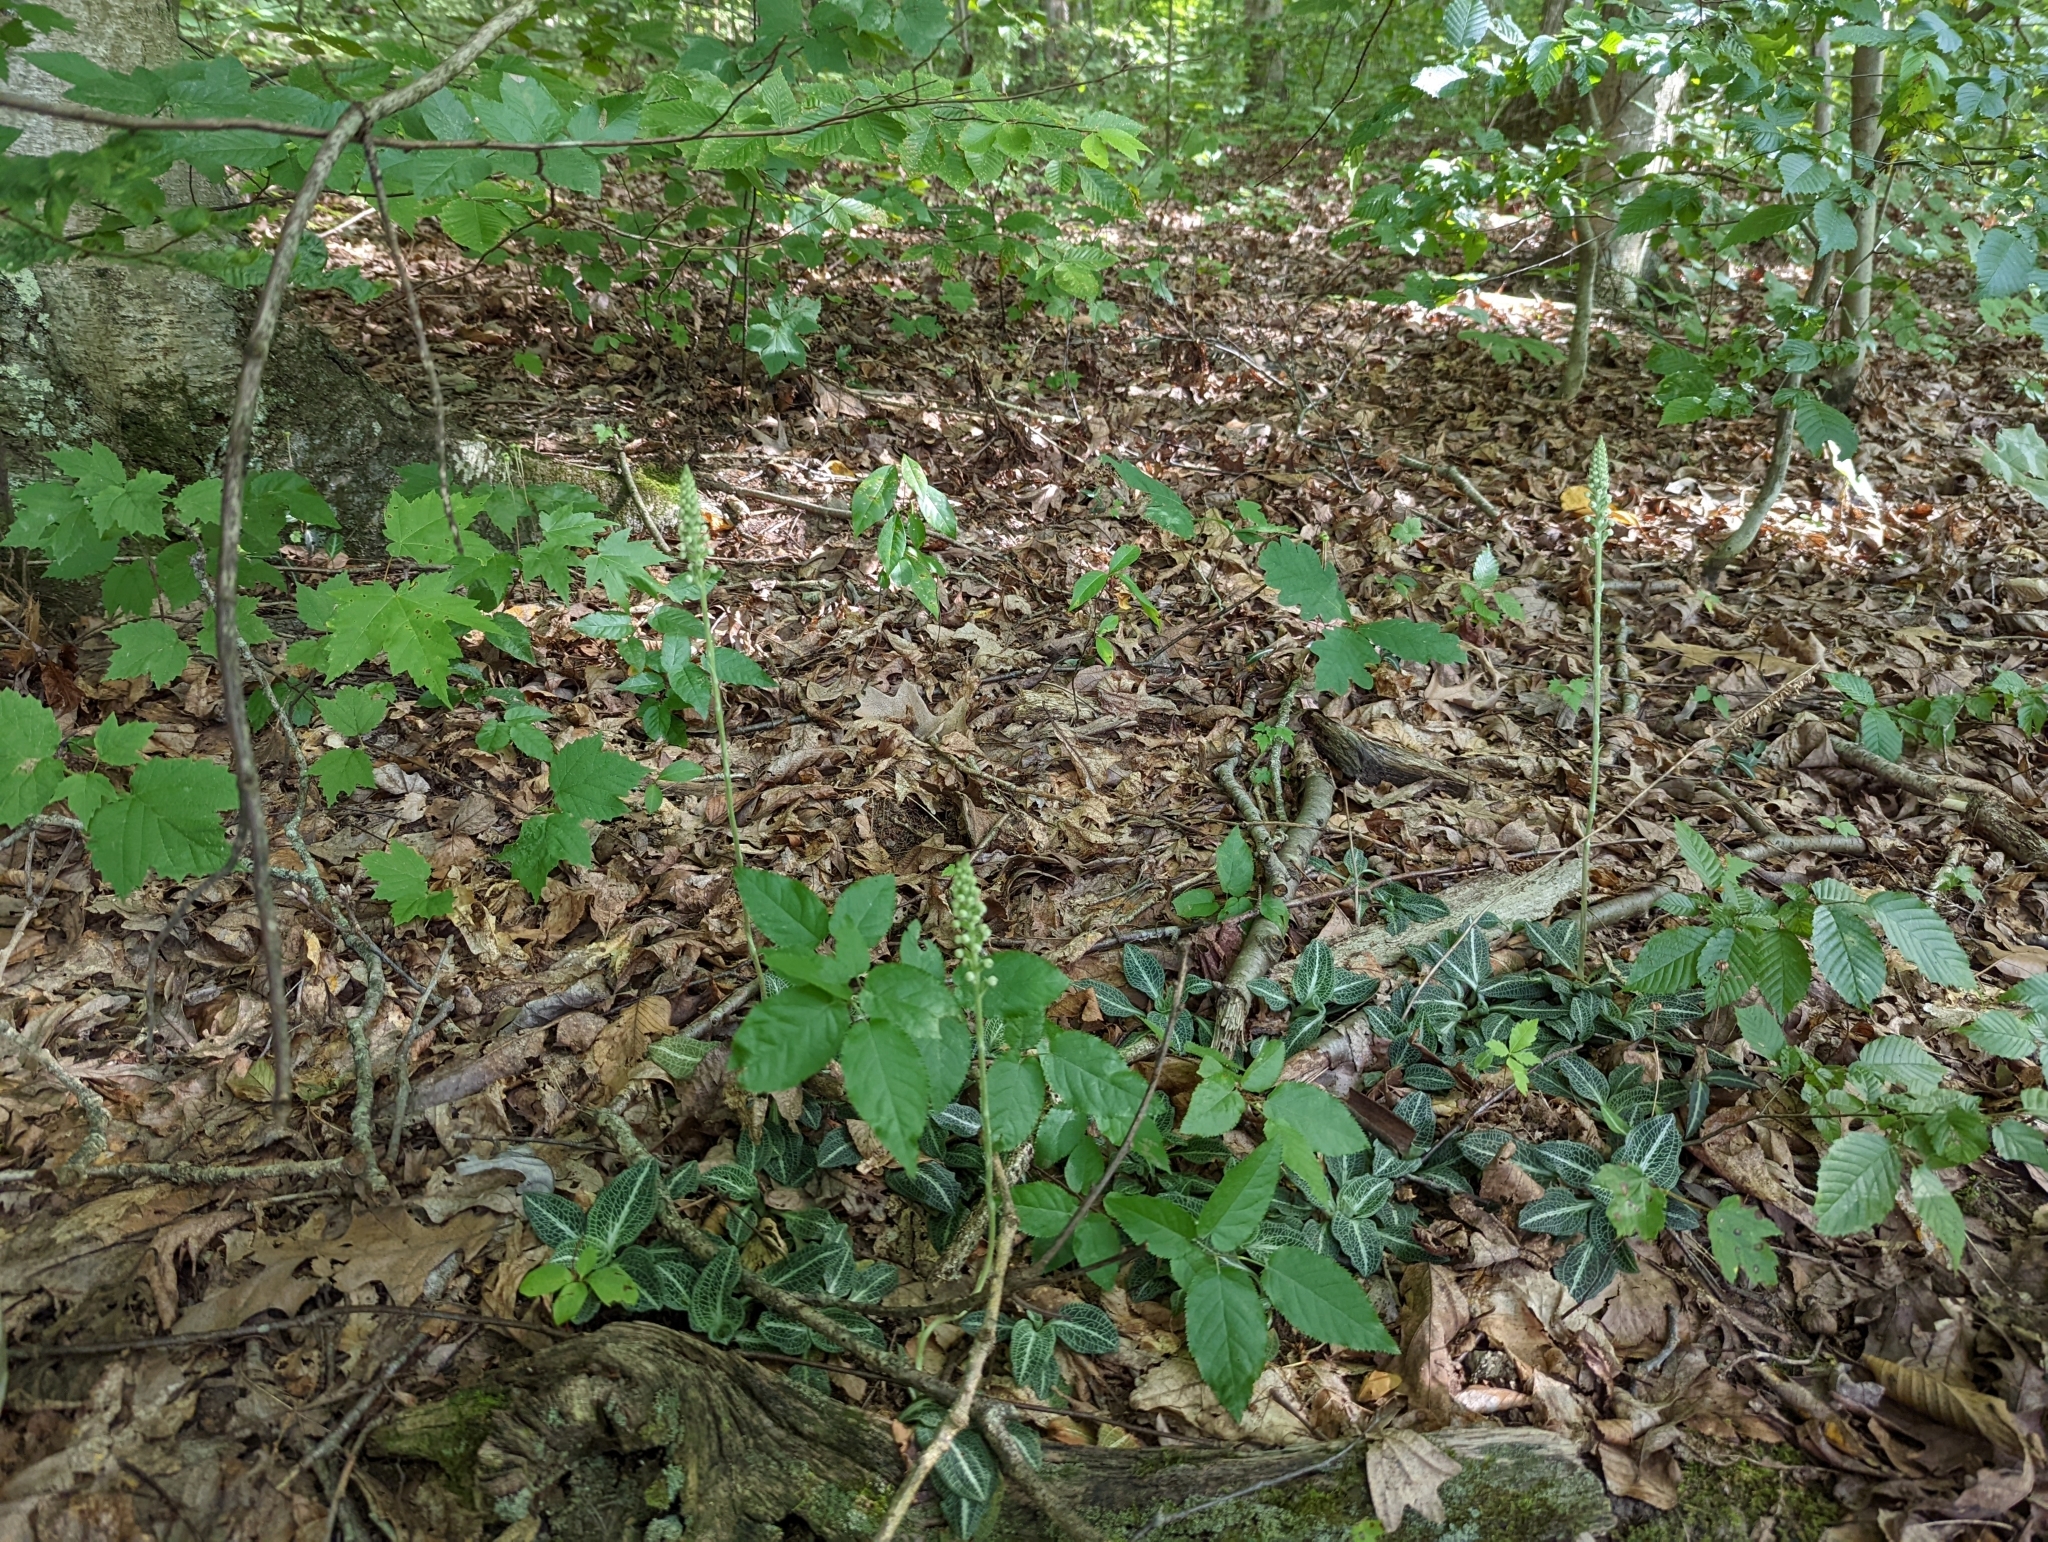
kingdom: Plantae
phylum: Tracheophyta
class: Liliopsida
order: Asparagales
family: Orchidaceae
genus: Goodyera
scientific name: Goodyera pubescens
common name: Downy rattlesnake-plantain
